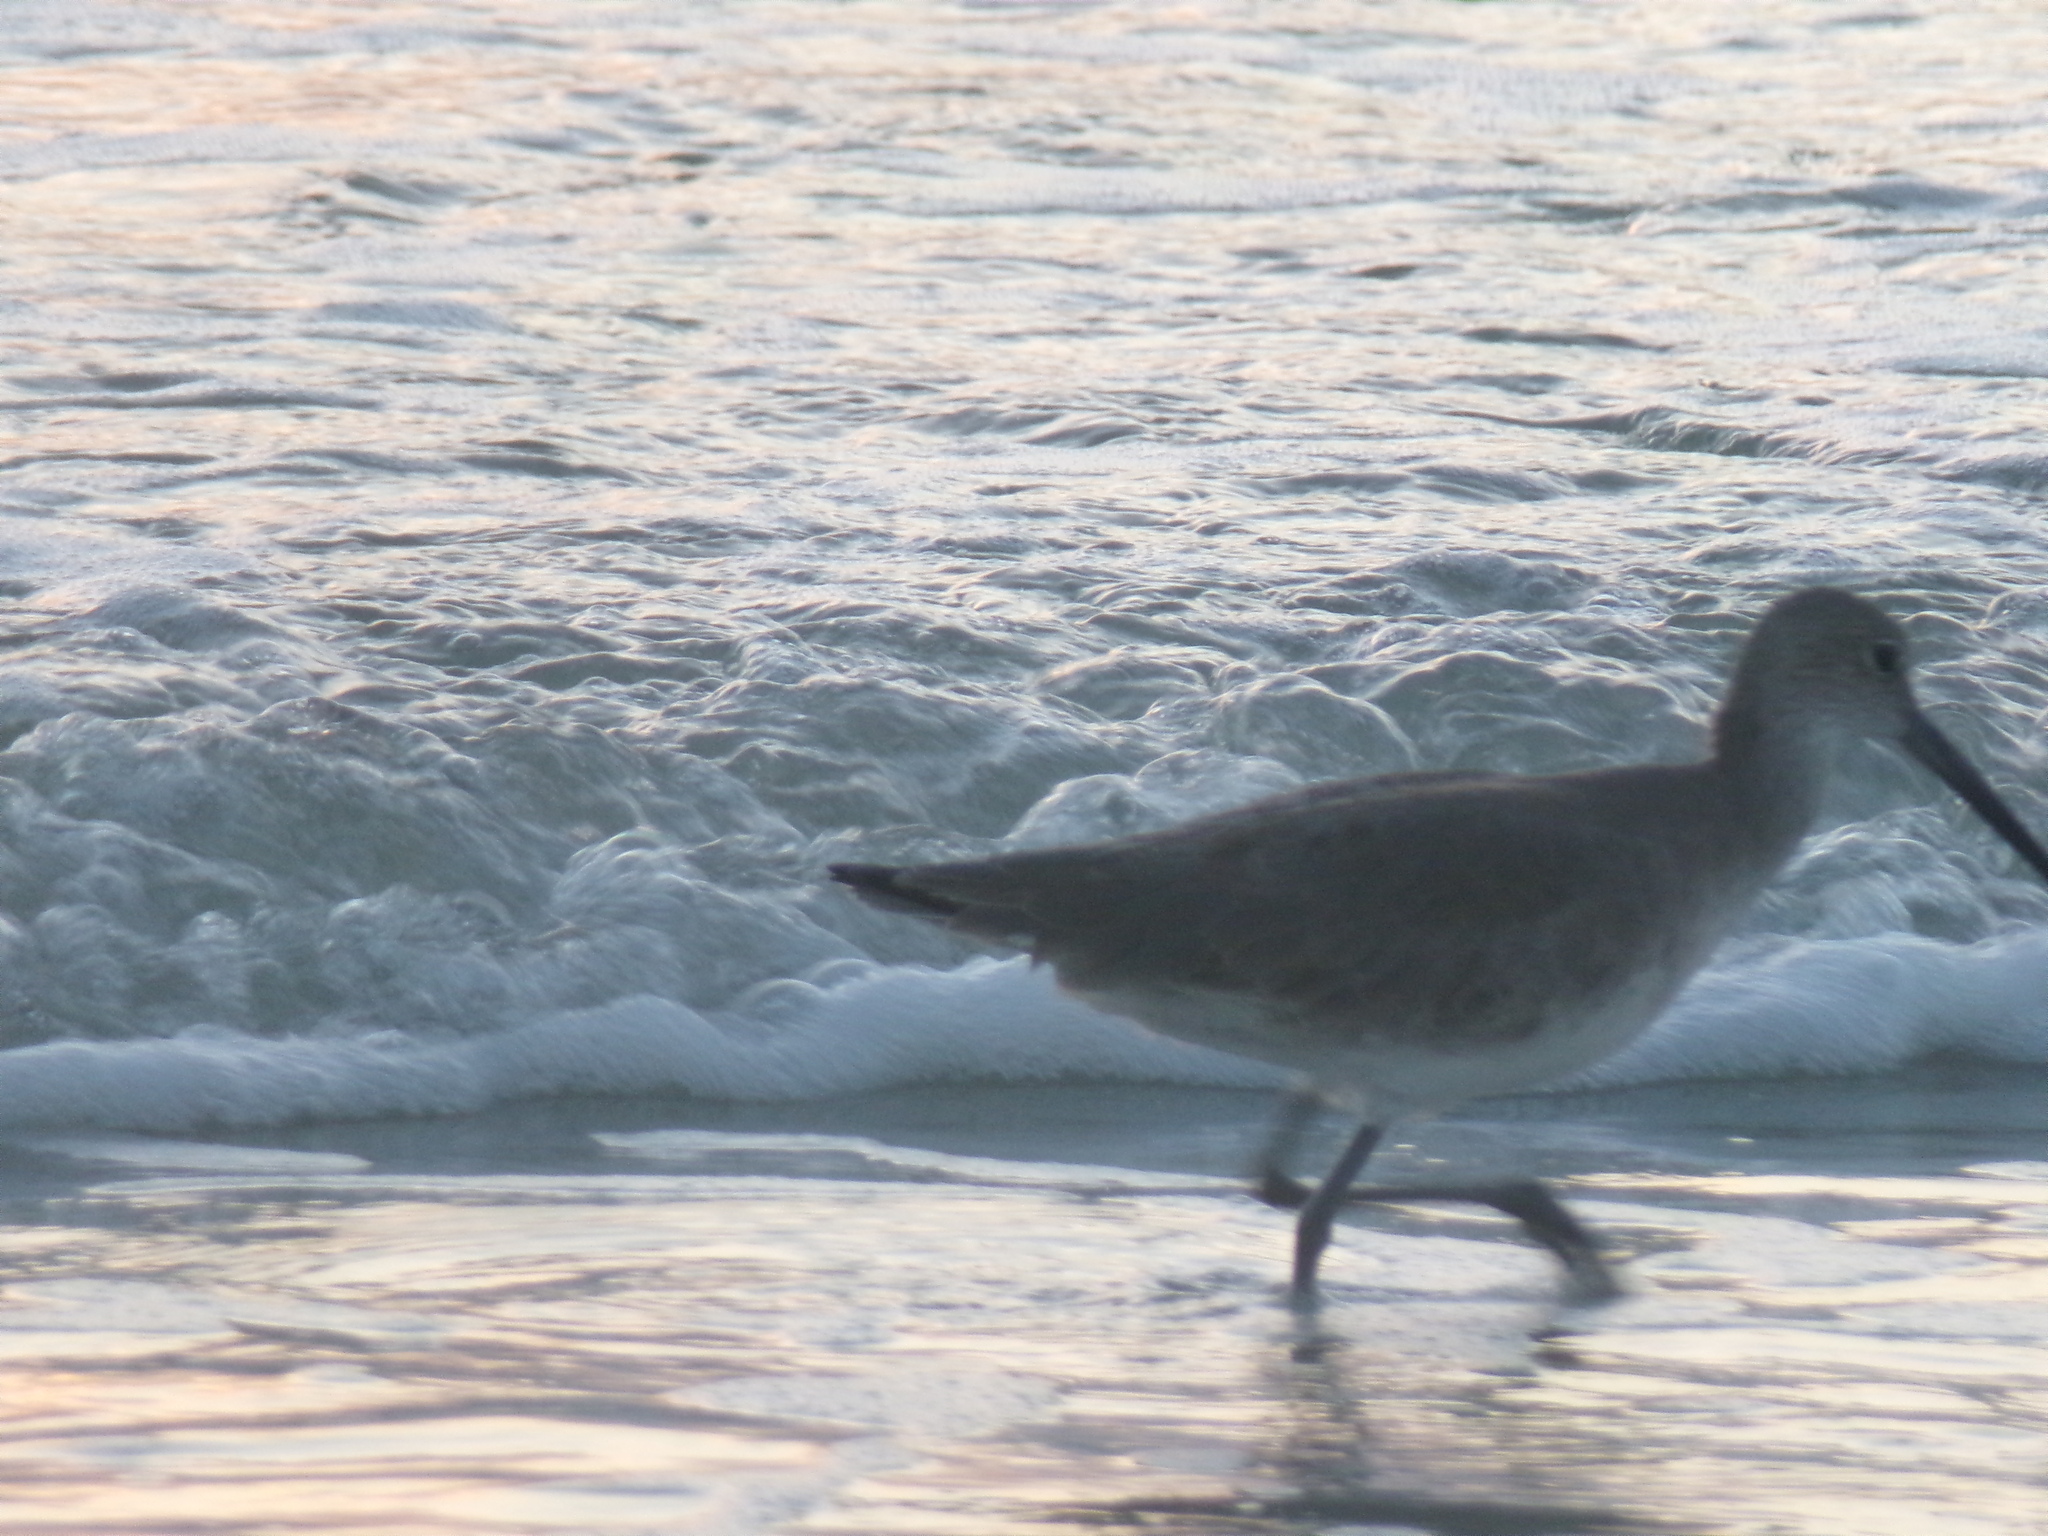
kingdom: Animalia
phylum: Chordata
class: Aves
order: Charadriiformes
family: Scolopacidae
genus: Tringa
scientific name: Tringa semipalmata
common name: Willet
